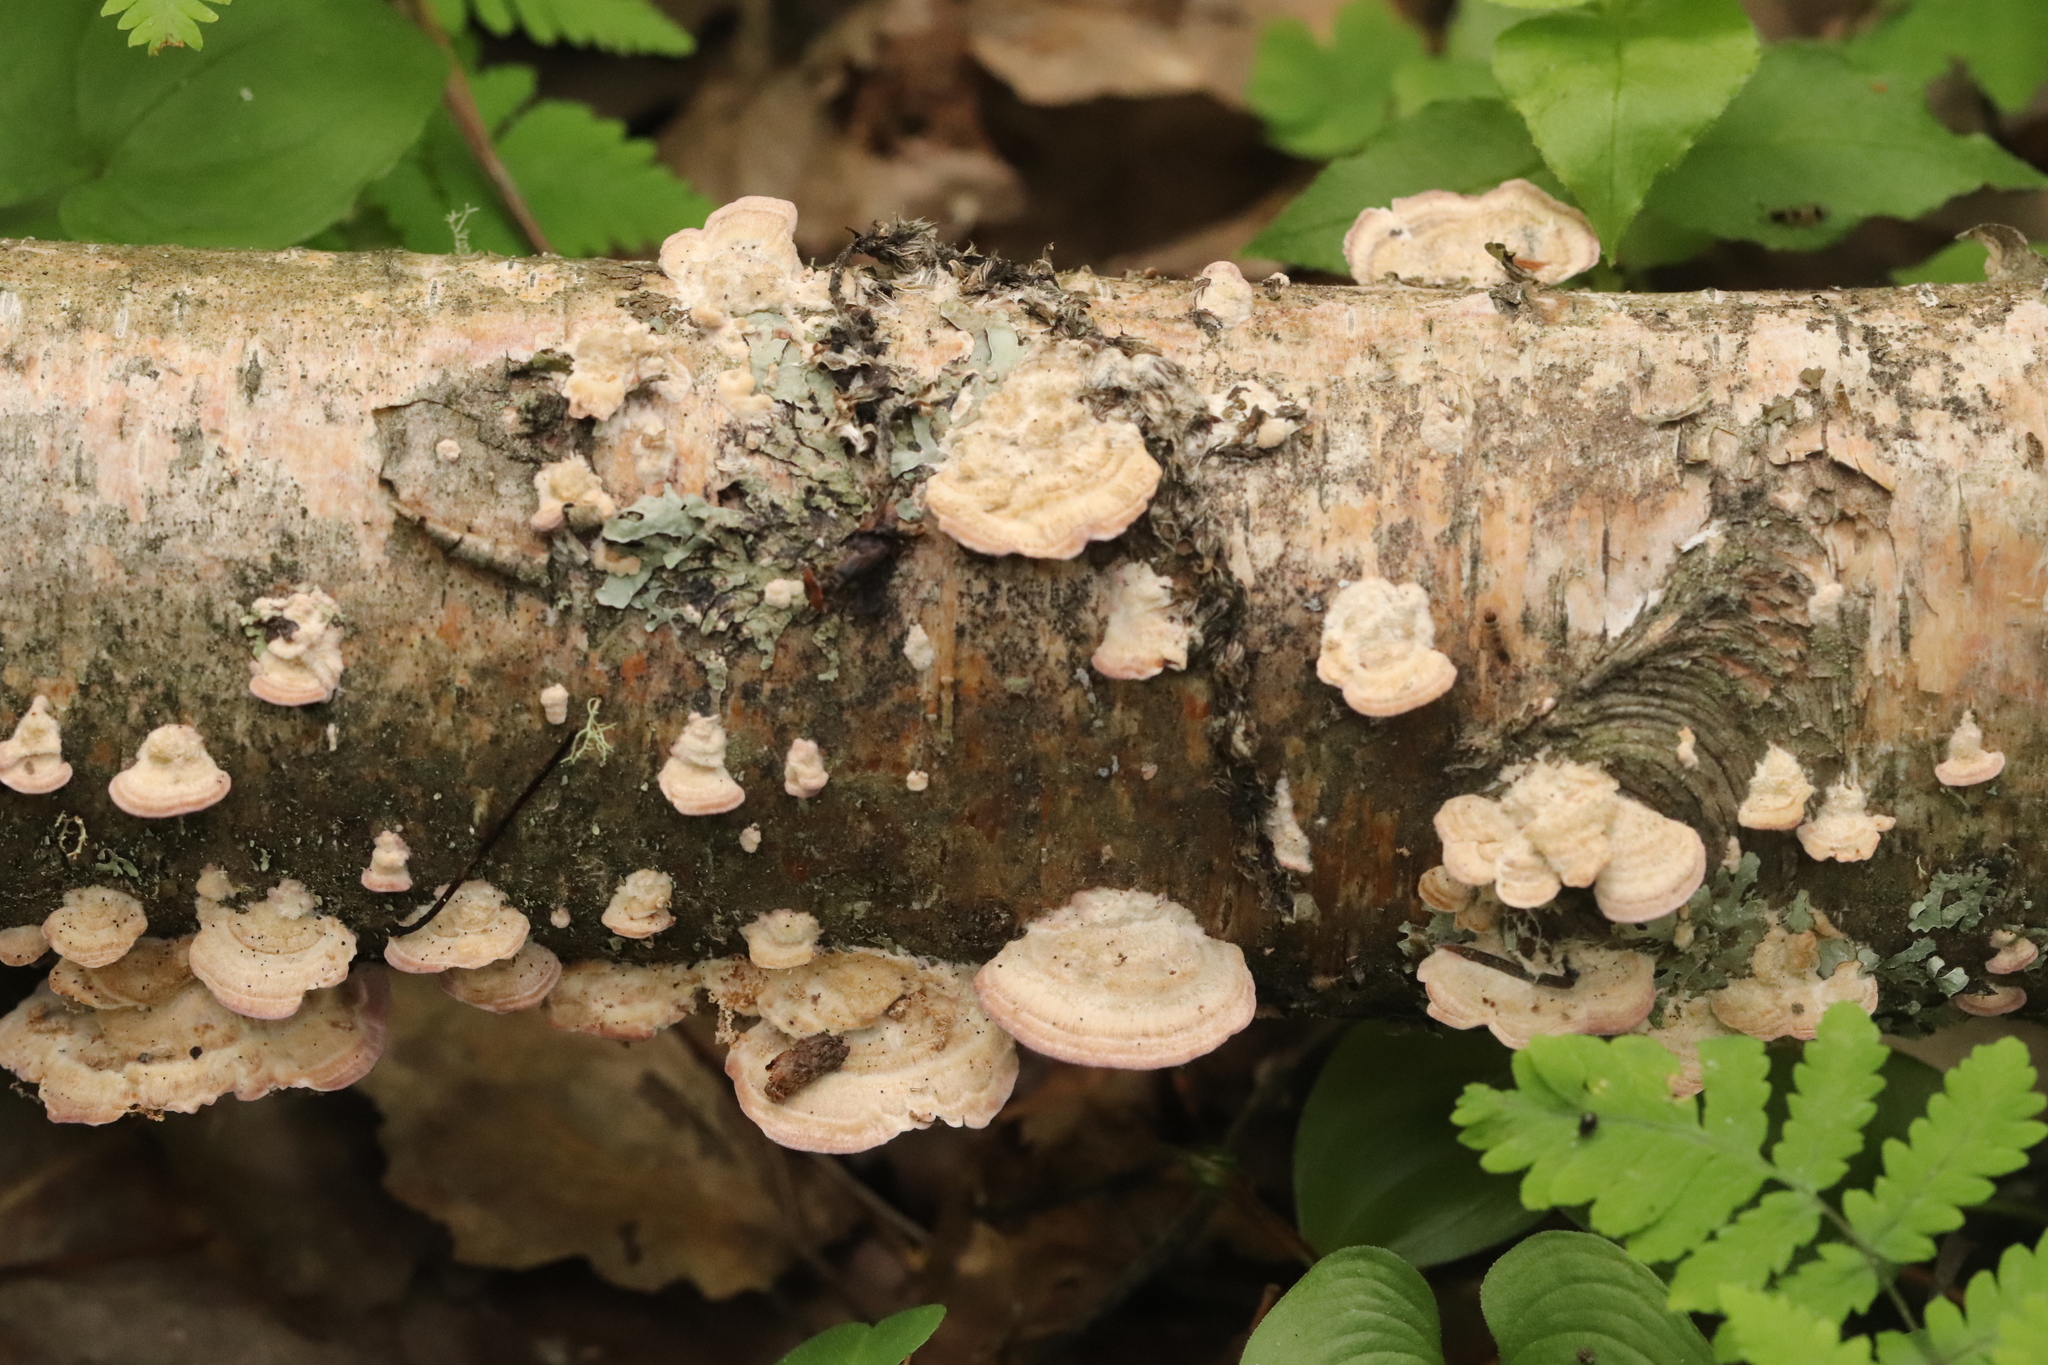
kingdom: Fungi
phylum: Basidiomycota
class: Agaricomycetes
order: Hymenochaetales
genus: Trichaptum
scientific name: Trichaptum biforme
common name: Violet-toothed polypore
